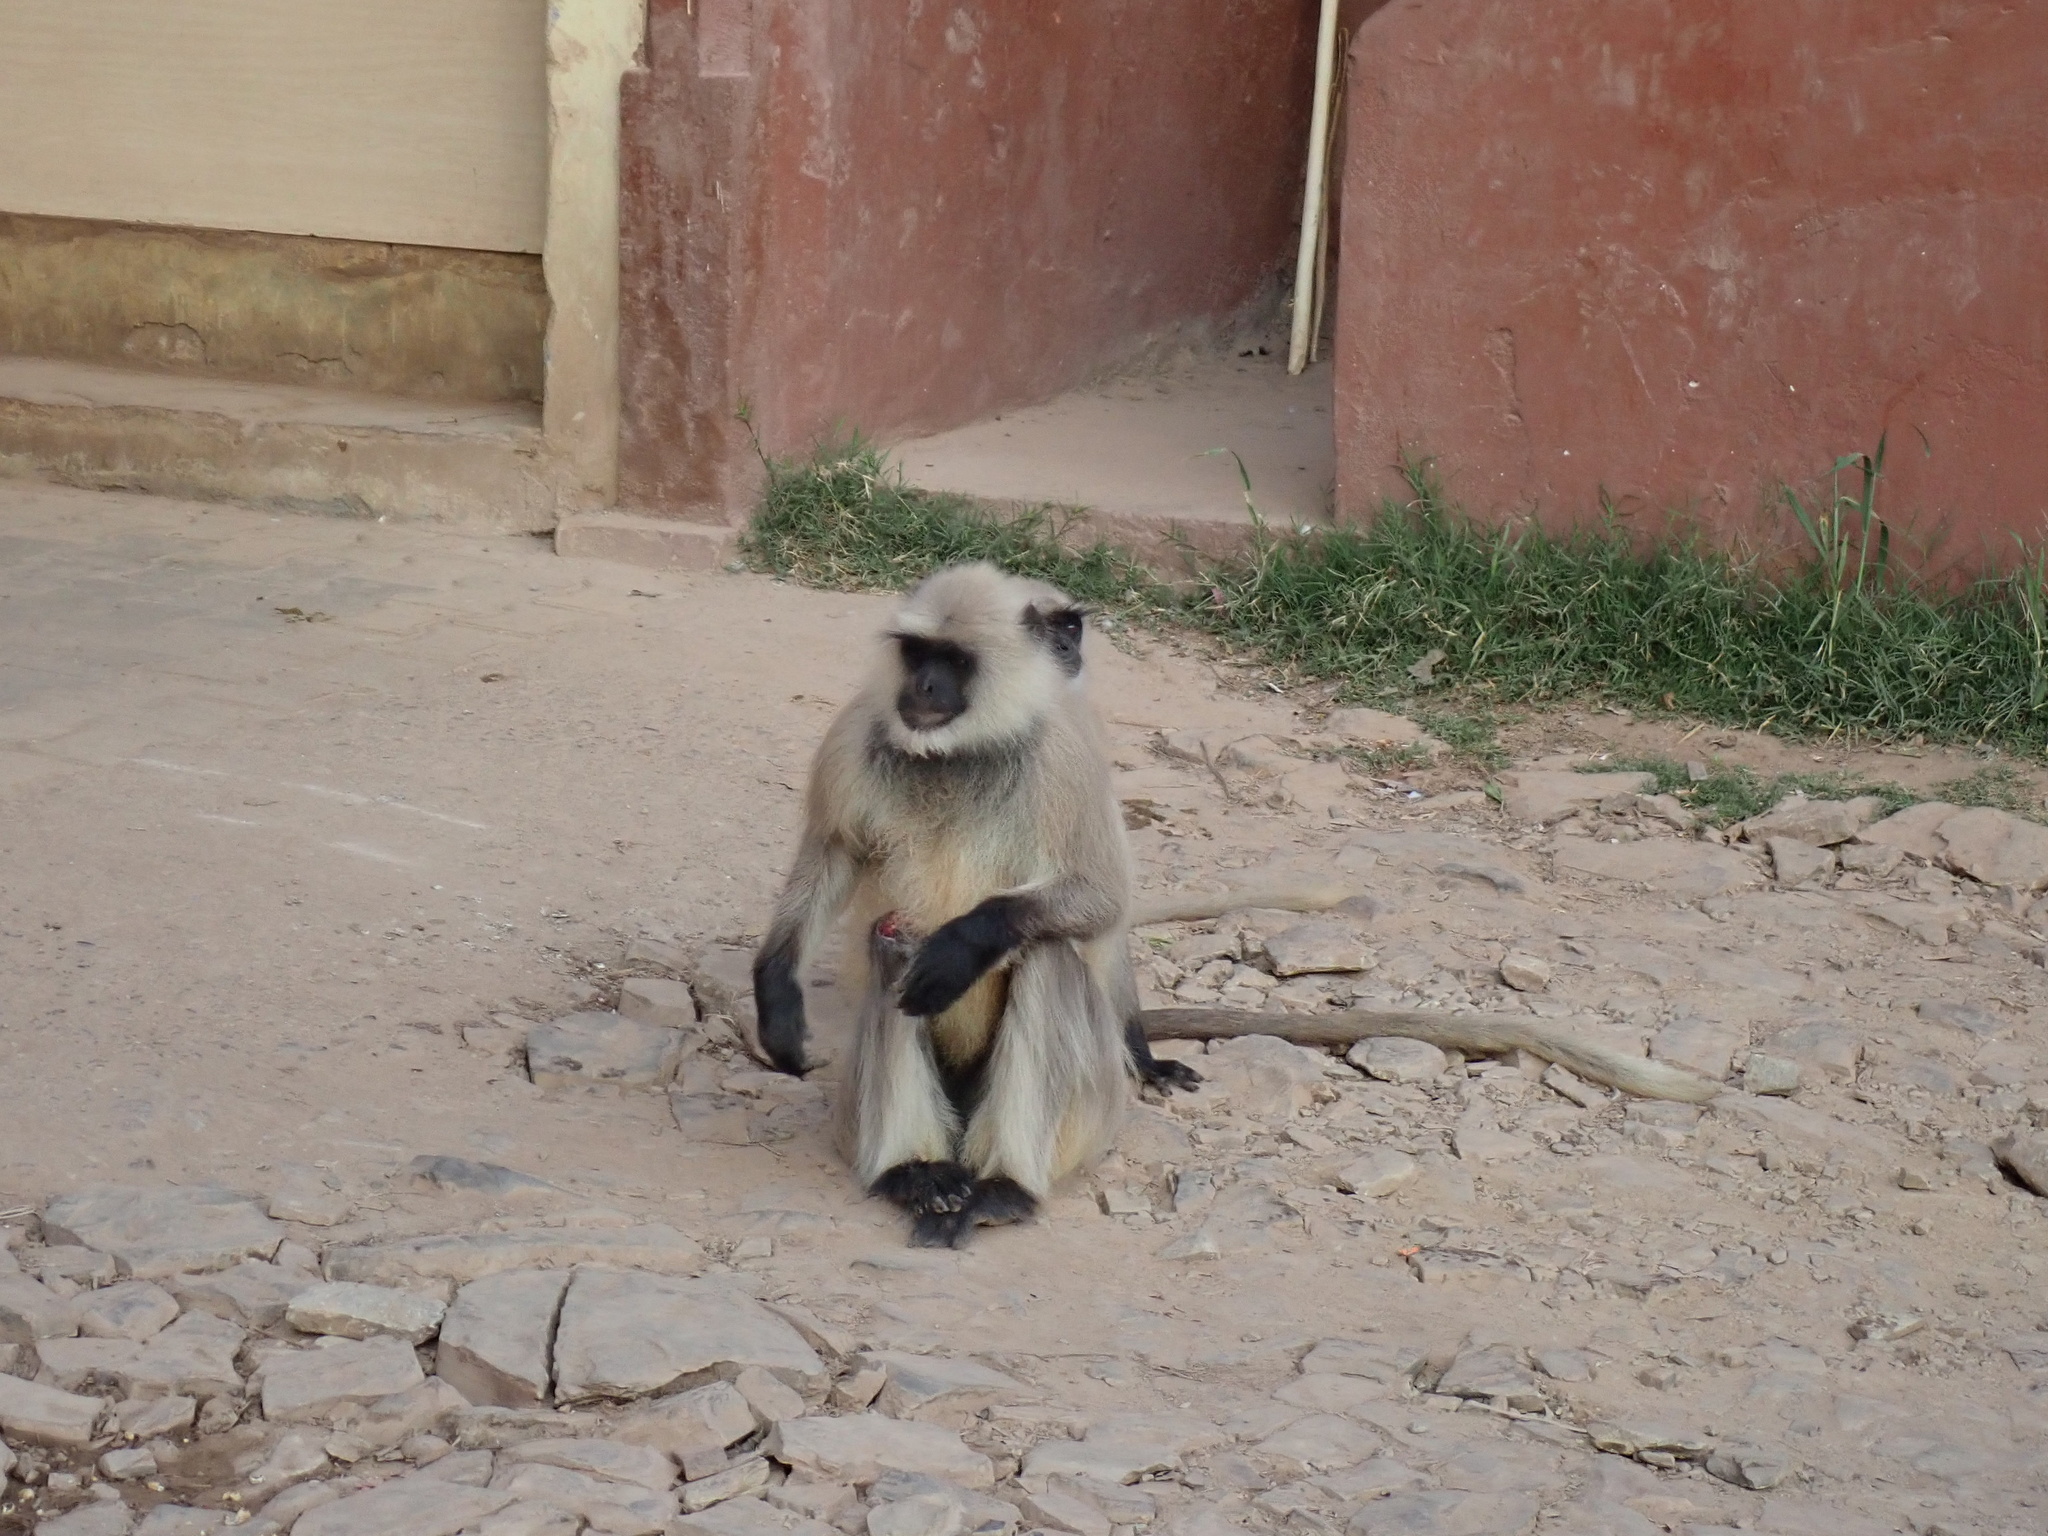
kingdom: Animalia
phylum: Chordata
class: Mammalia
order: Primates
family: Cercopithecidae
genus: Semnopithecus
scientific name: Semnopithecus entellus
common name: Northern plains gray langur
